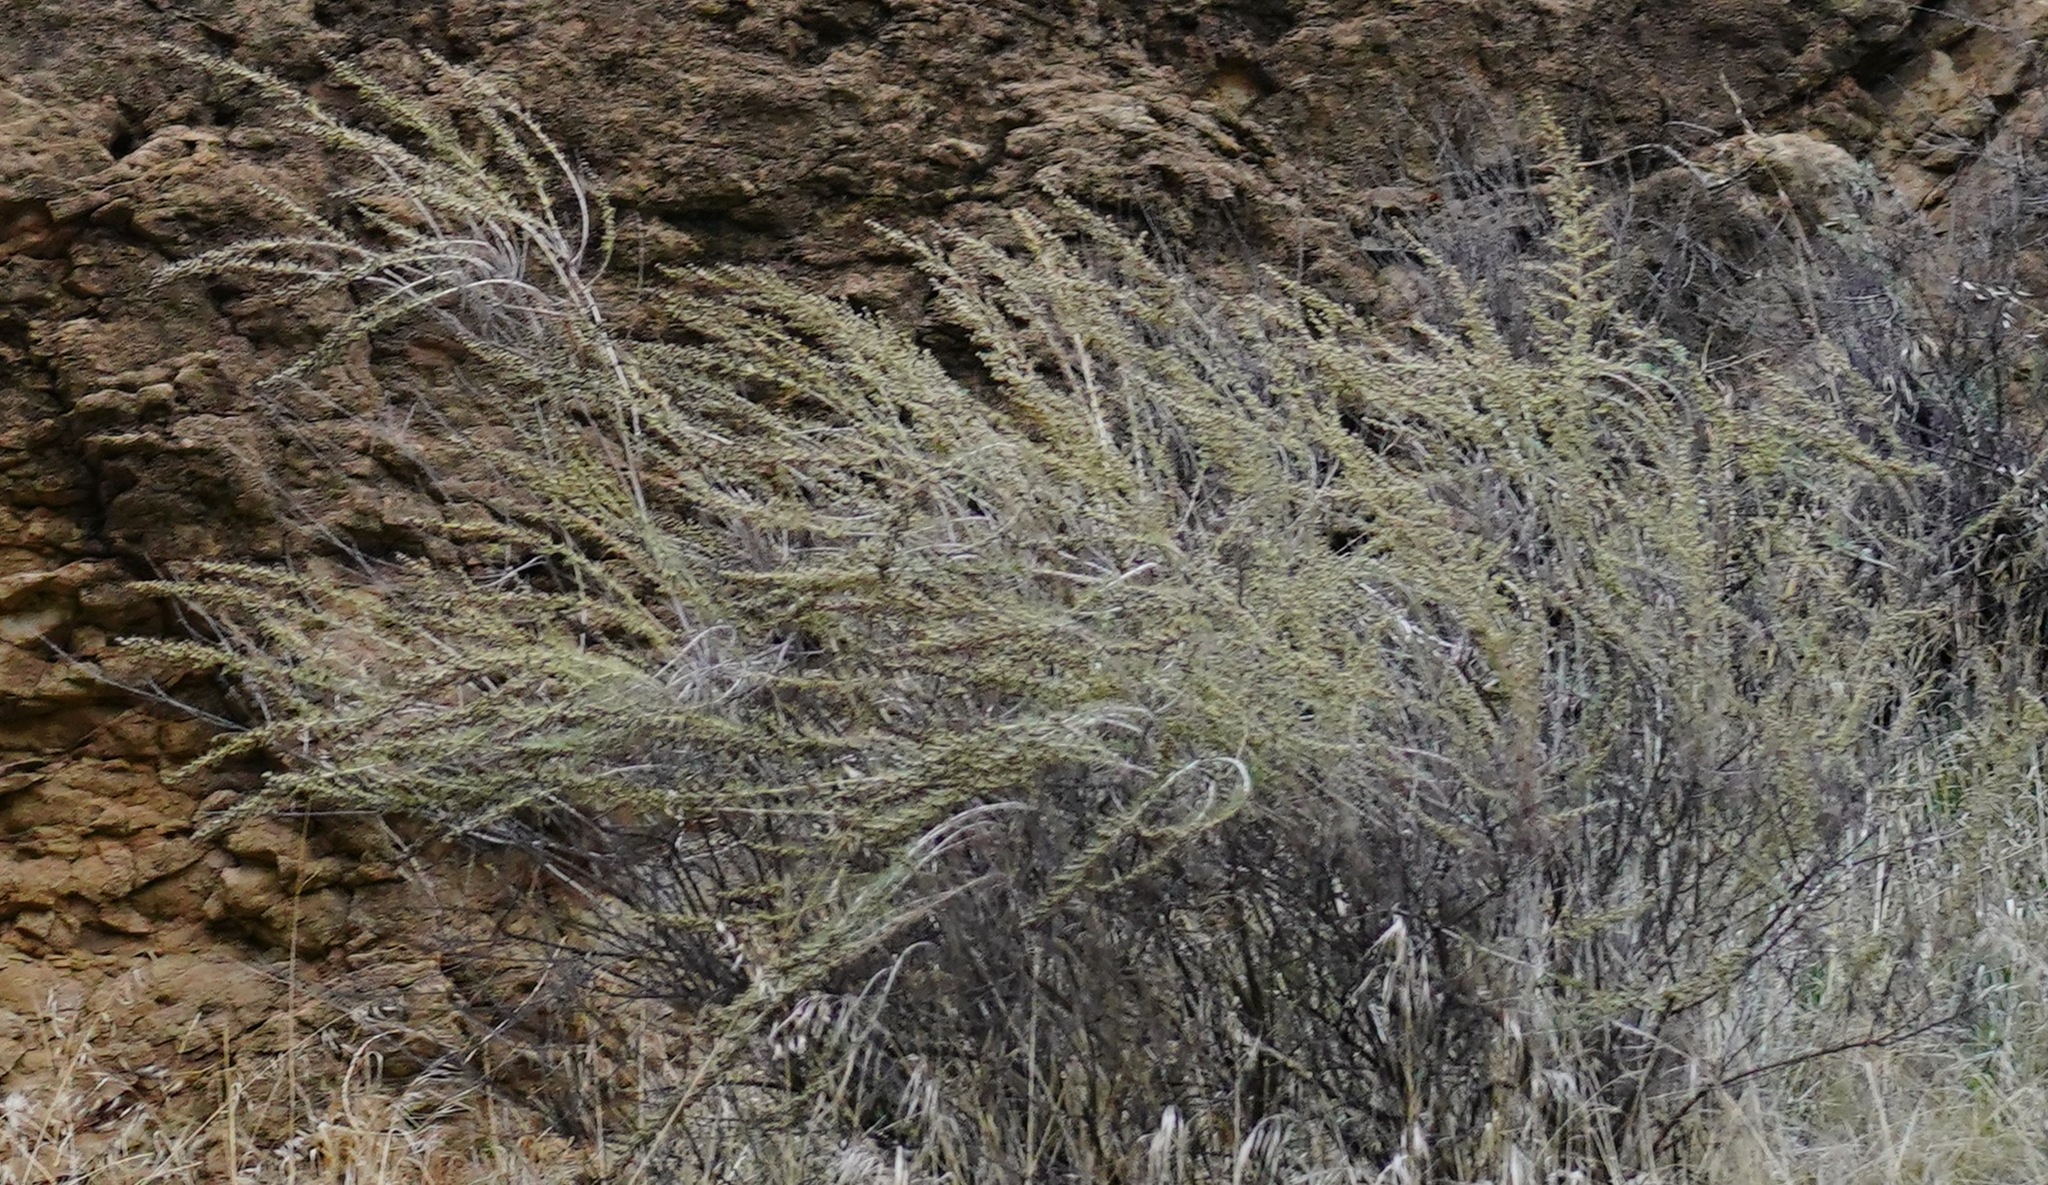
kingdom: Plantae
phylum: Tracheophyta
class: Magnoliopsida
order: Asterales
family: Asteraceae
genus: Artemisia
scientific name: Artemisia californica
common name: California sagebrush
